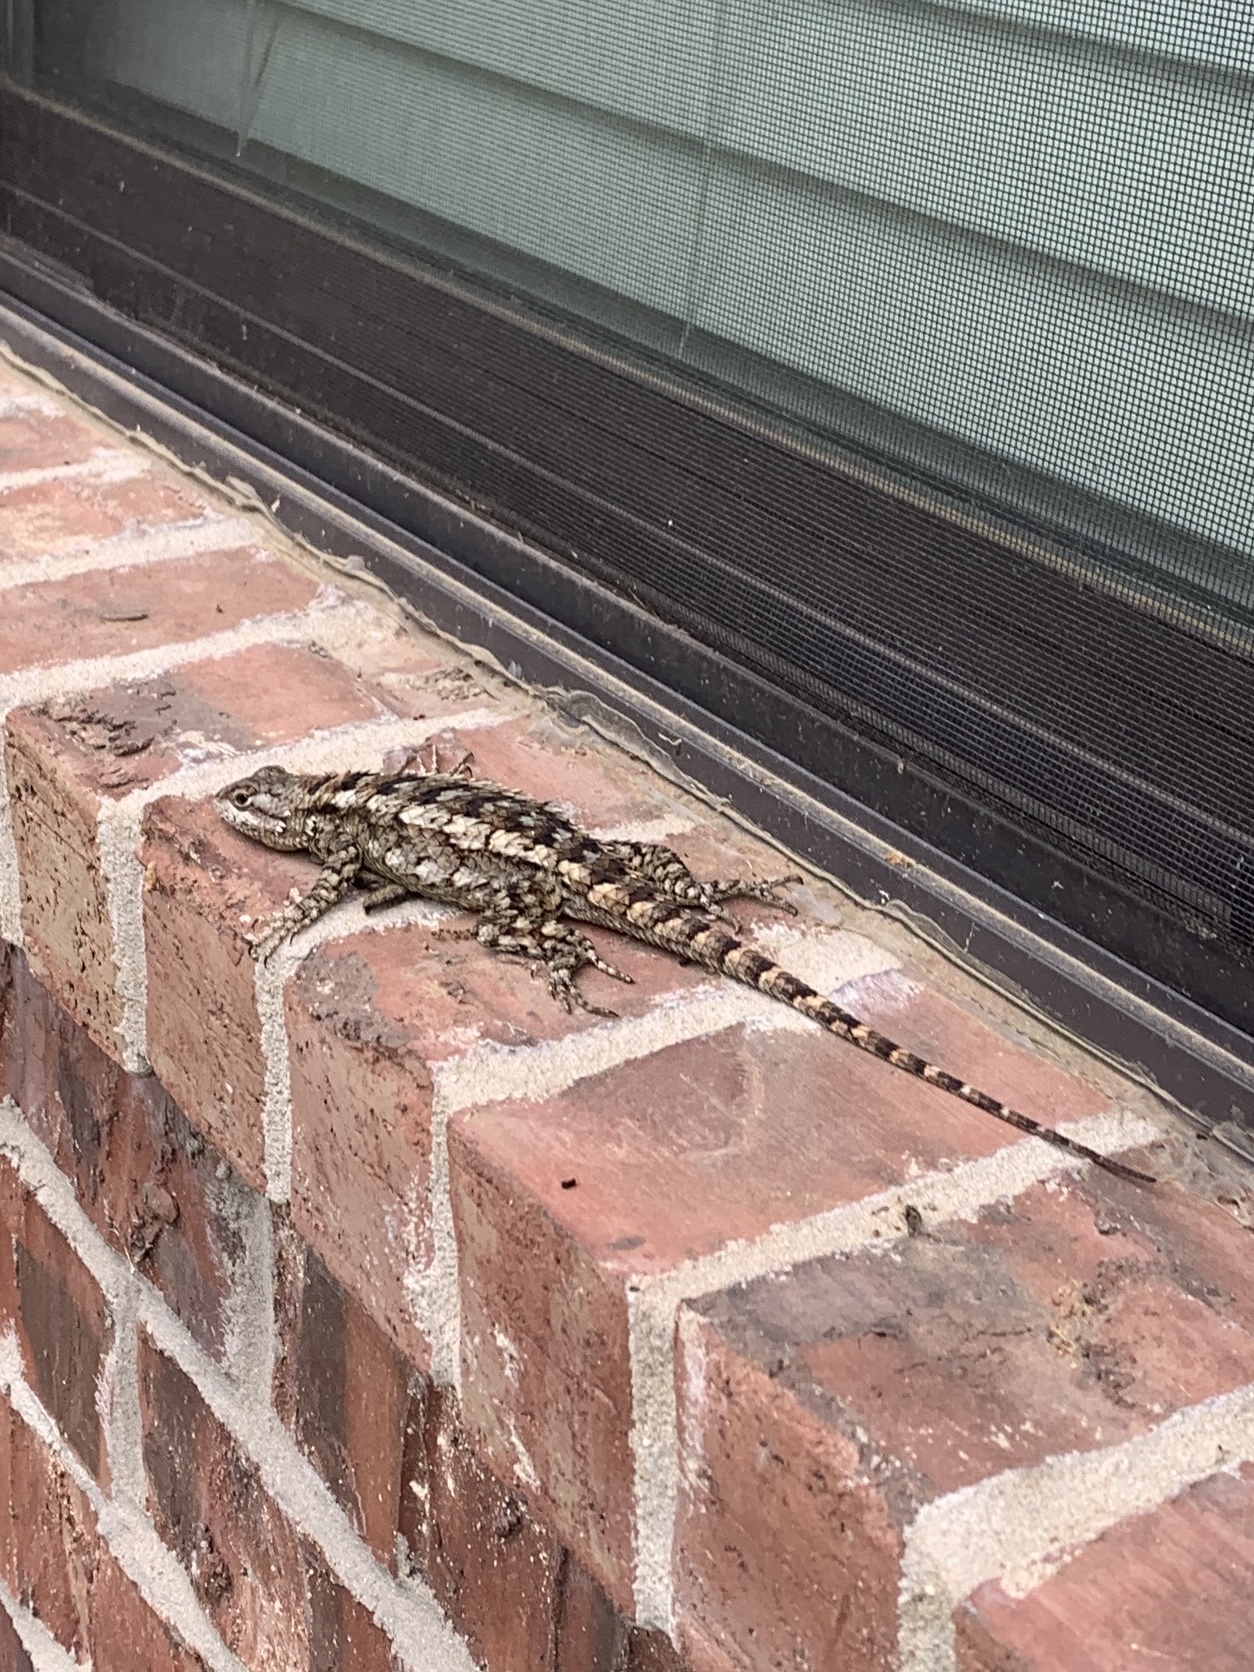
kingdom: Animalia
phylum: Chordata
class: Squamata
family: Phrynosomatidae
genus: Sceloporus
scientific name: Sceloporus olivaceus
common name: Texas spiny lizard
